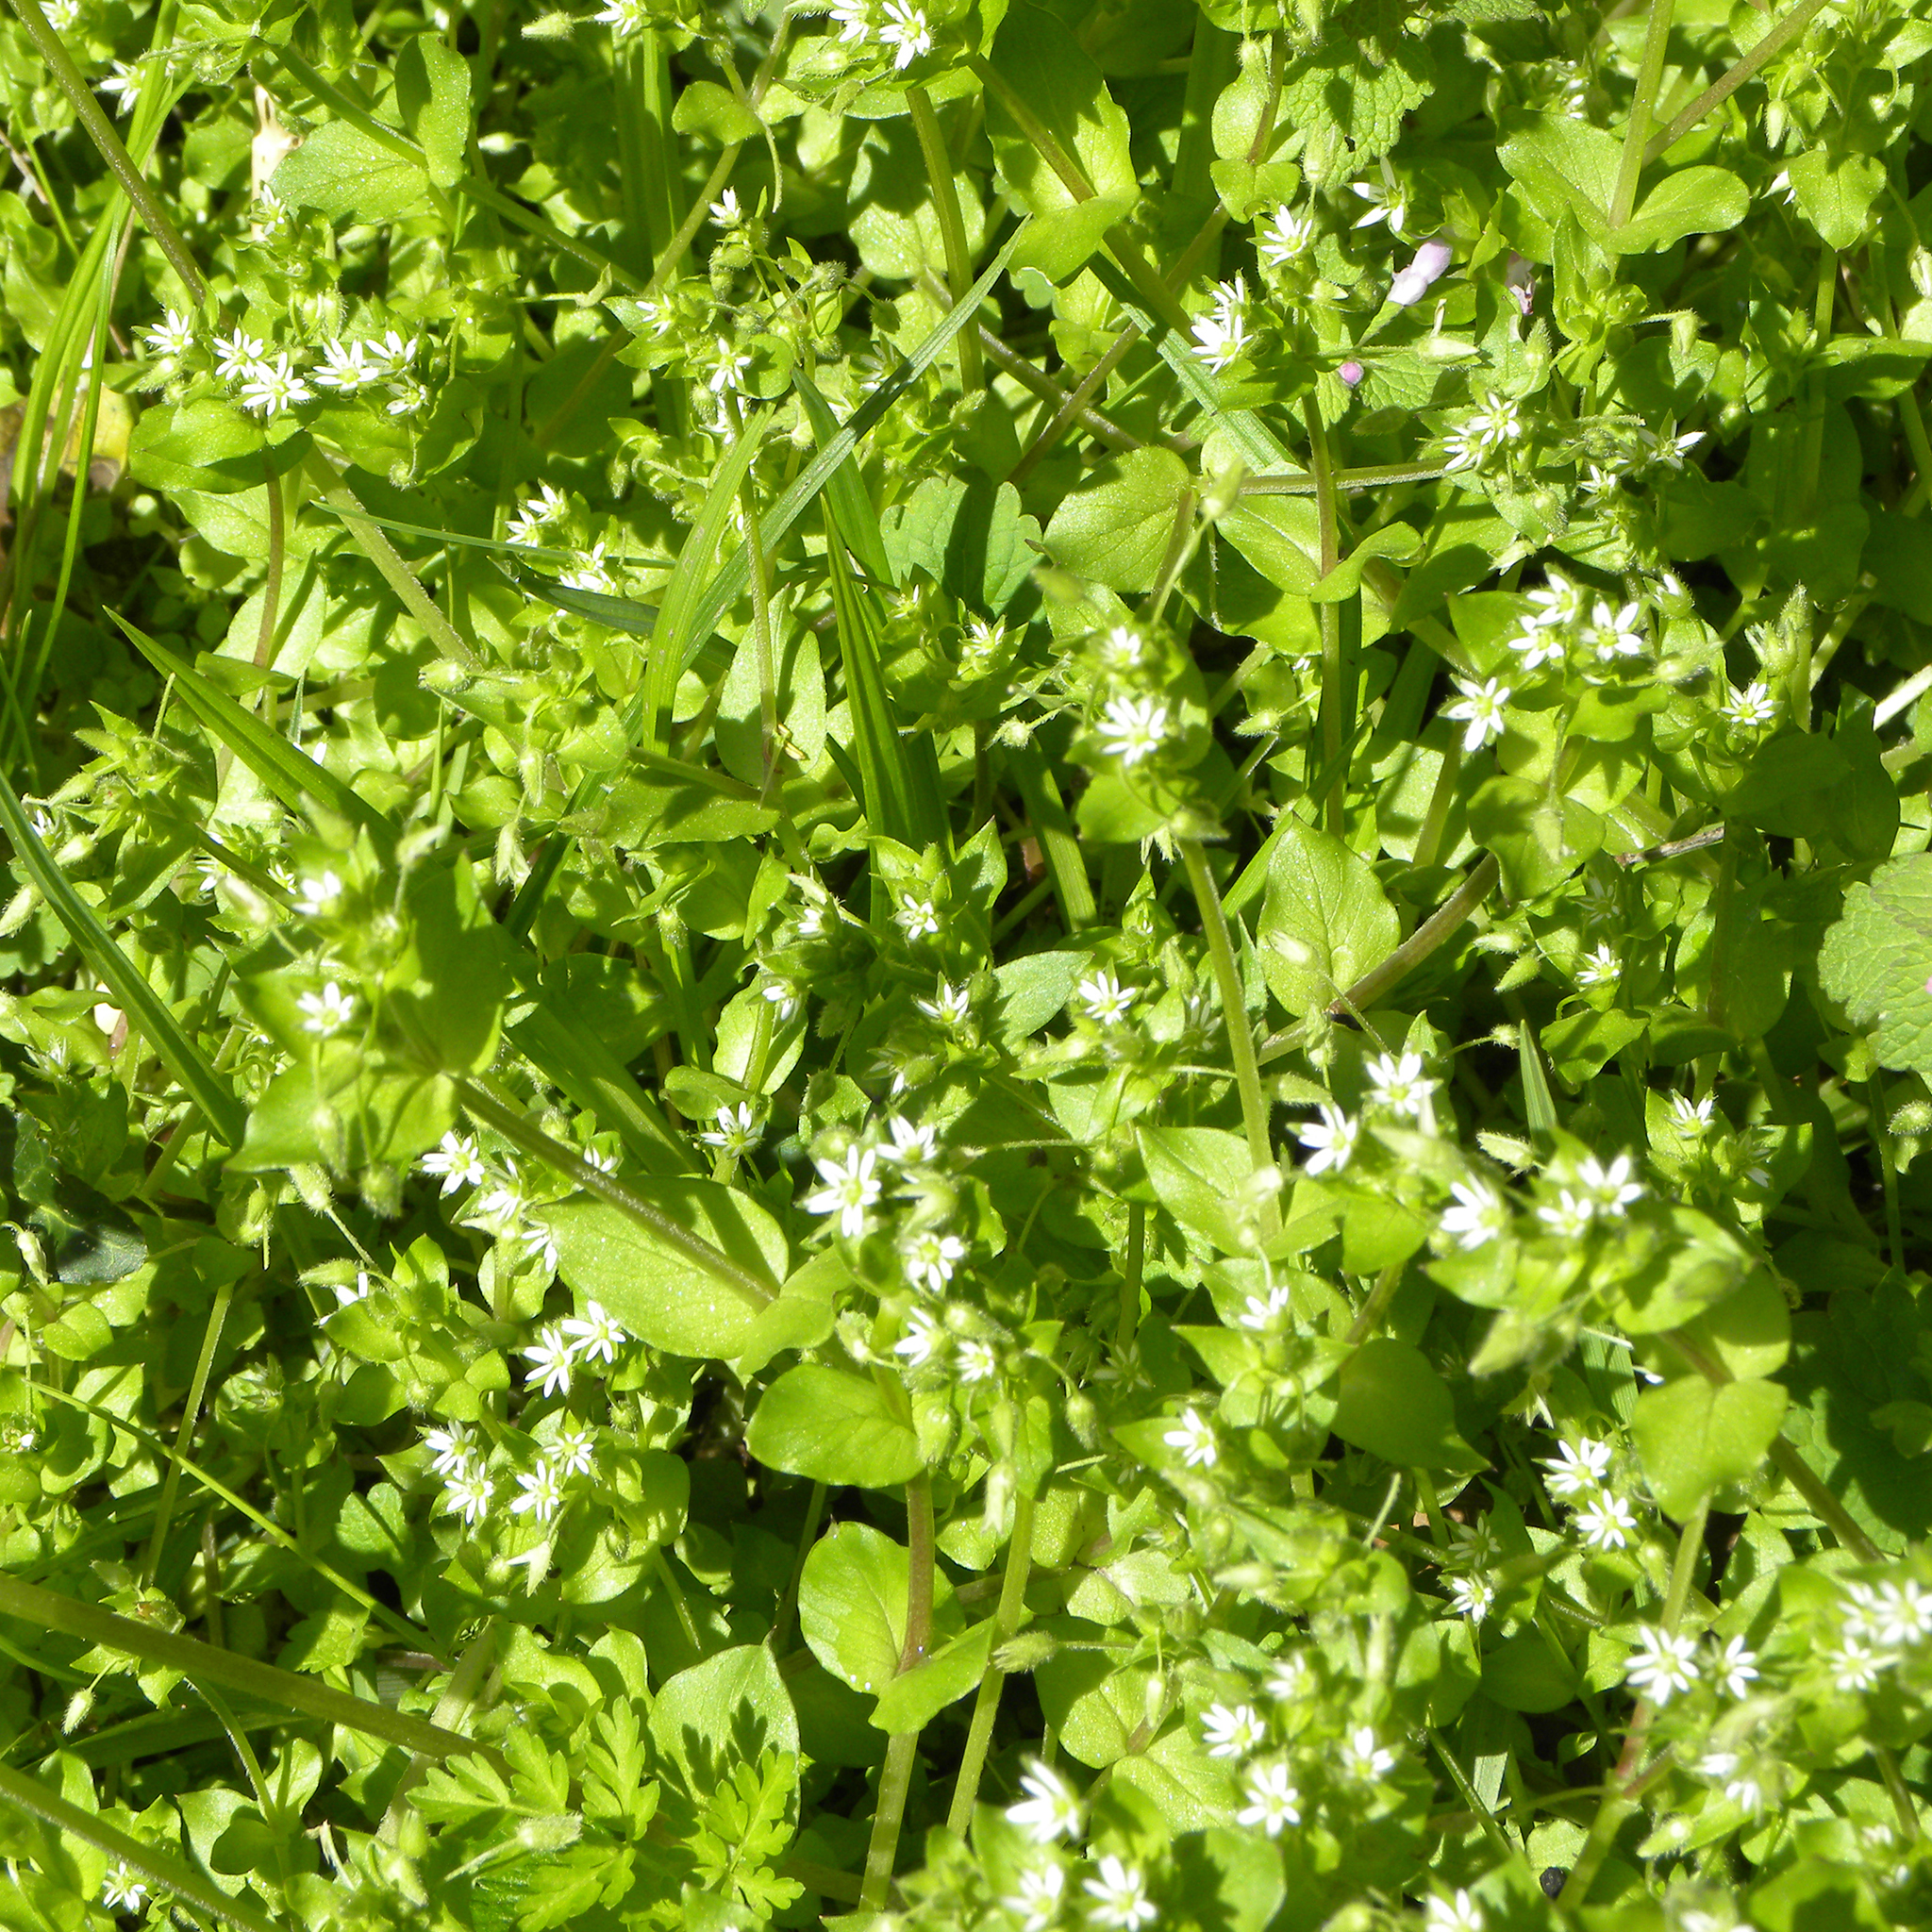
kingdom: Plantae
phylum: Tracheophyta
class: Magnoliopsida
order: Caryophyllales
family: Caryophyllaceae
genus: Stellaria
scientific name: Stellaria media
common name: Common chickweed
